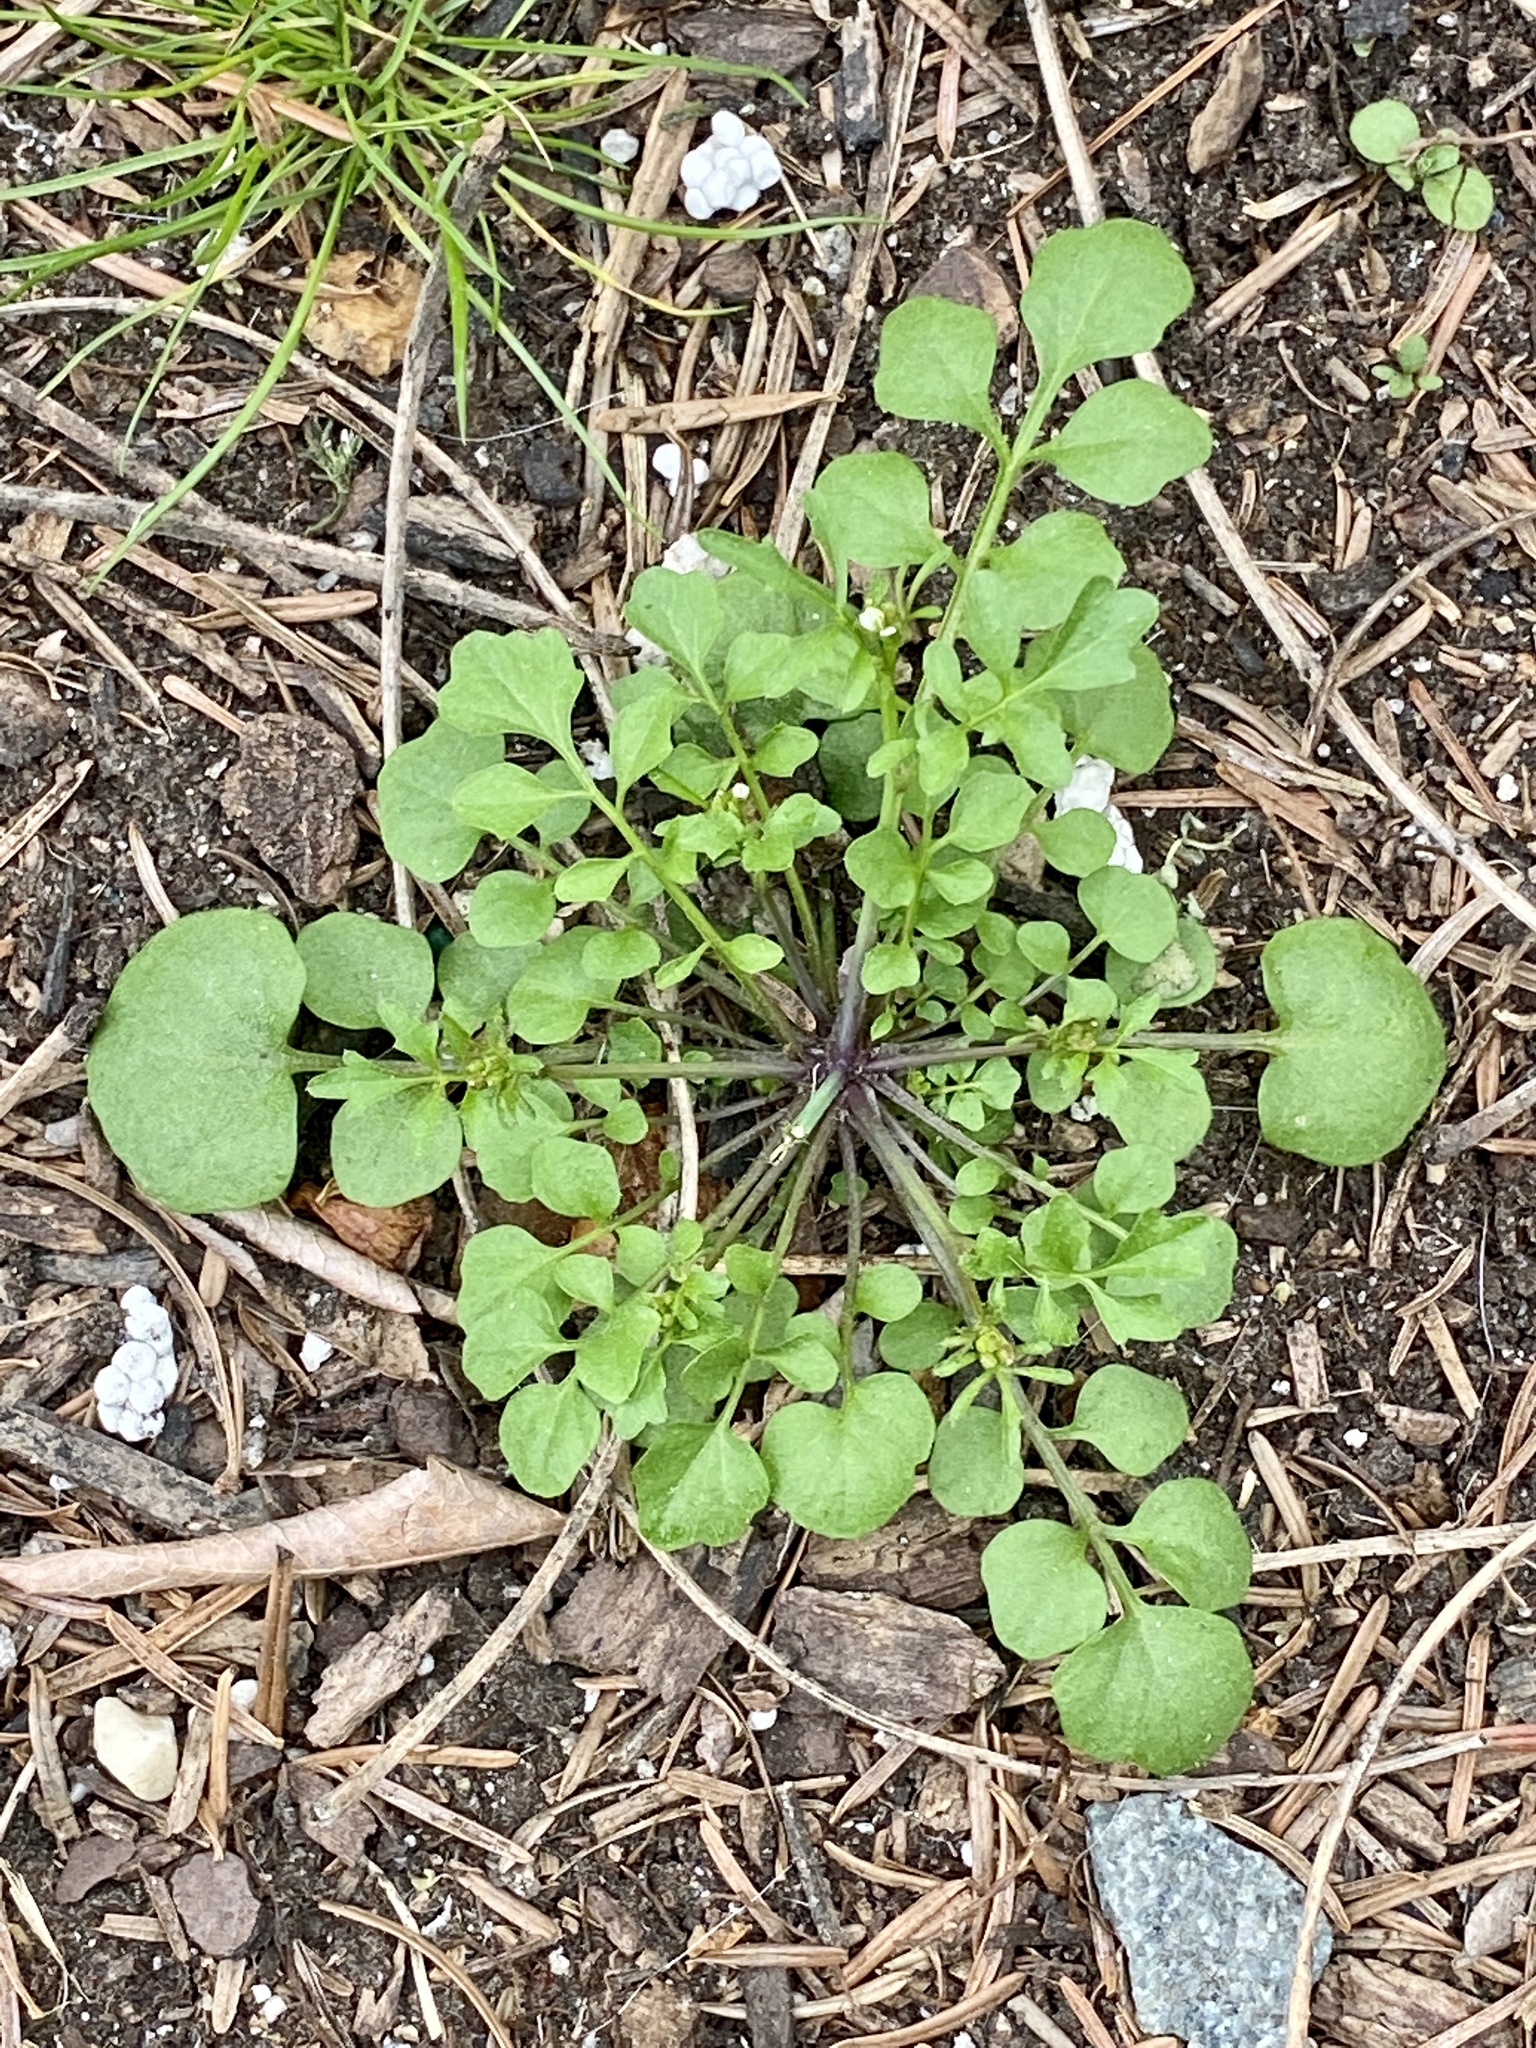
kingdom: Plantae
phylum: Tracheophyta
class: Magnoliopsida
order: Brassicales
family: Brassicaceae
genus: Cardamine
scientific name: Cardamine hirsuta
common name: Hairy bittercress
